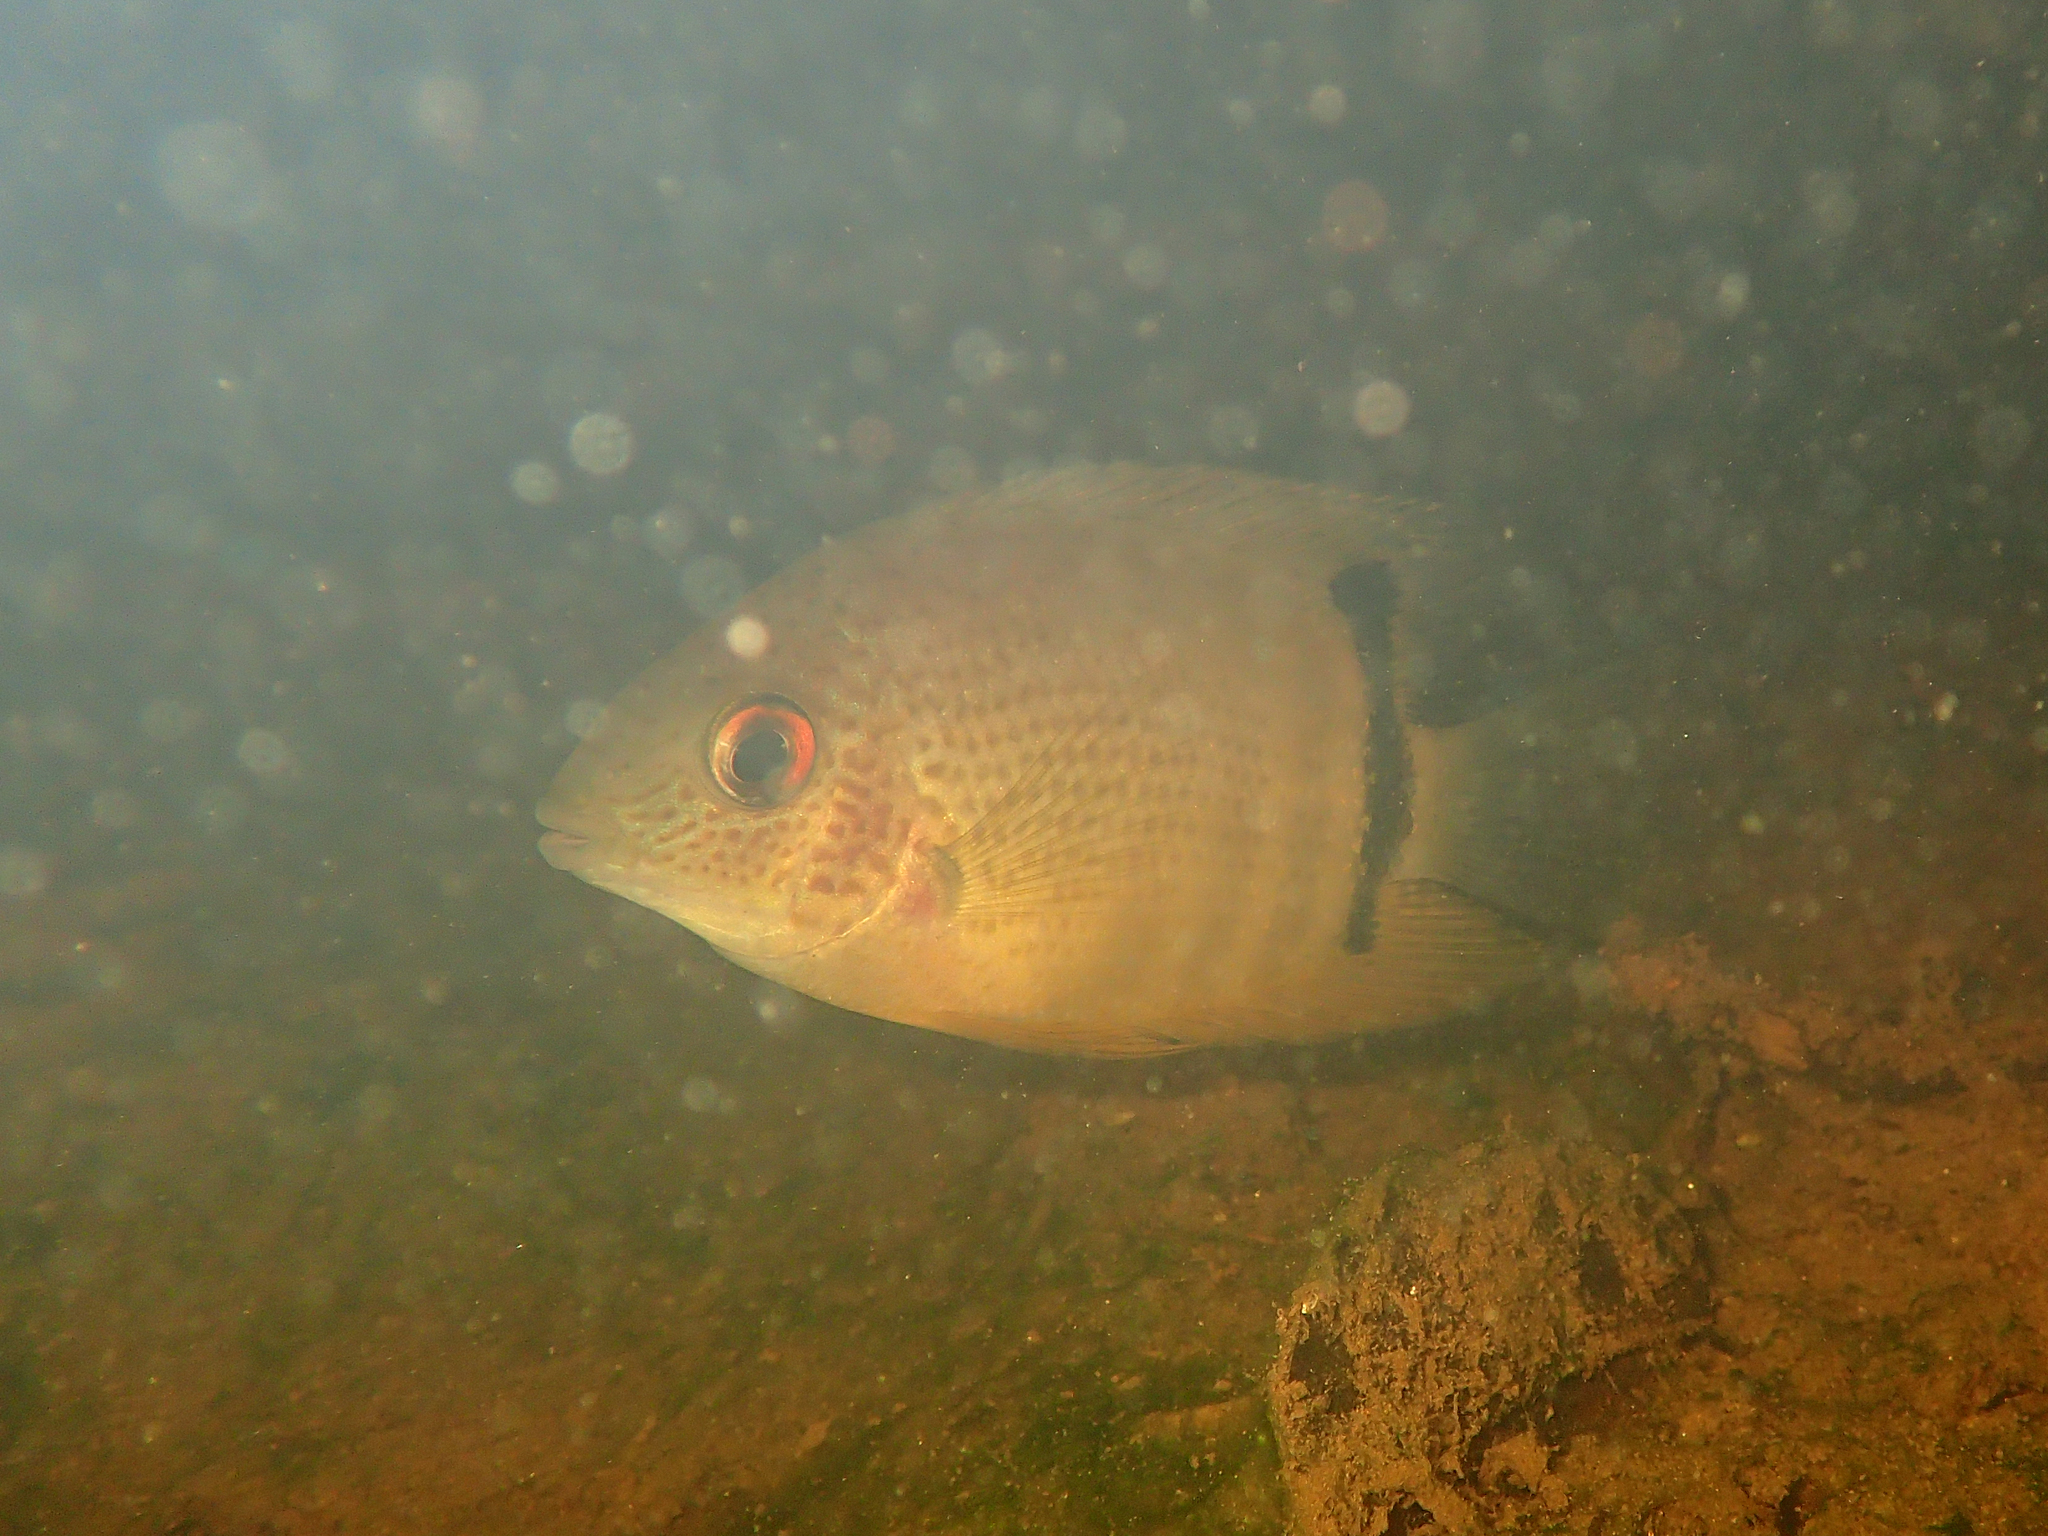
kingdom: Animalia
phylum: Chordata
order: Perciformes
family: Cichlidae
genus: Heros
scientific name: Heros efasciatus
